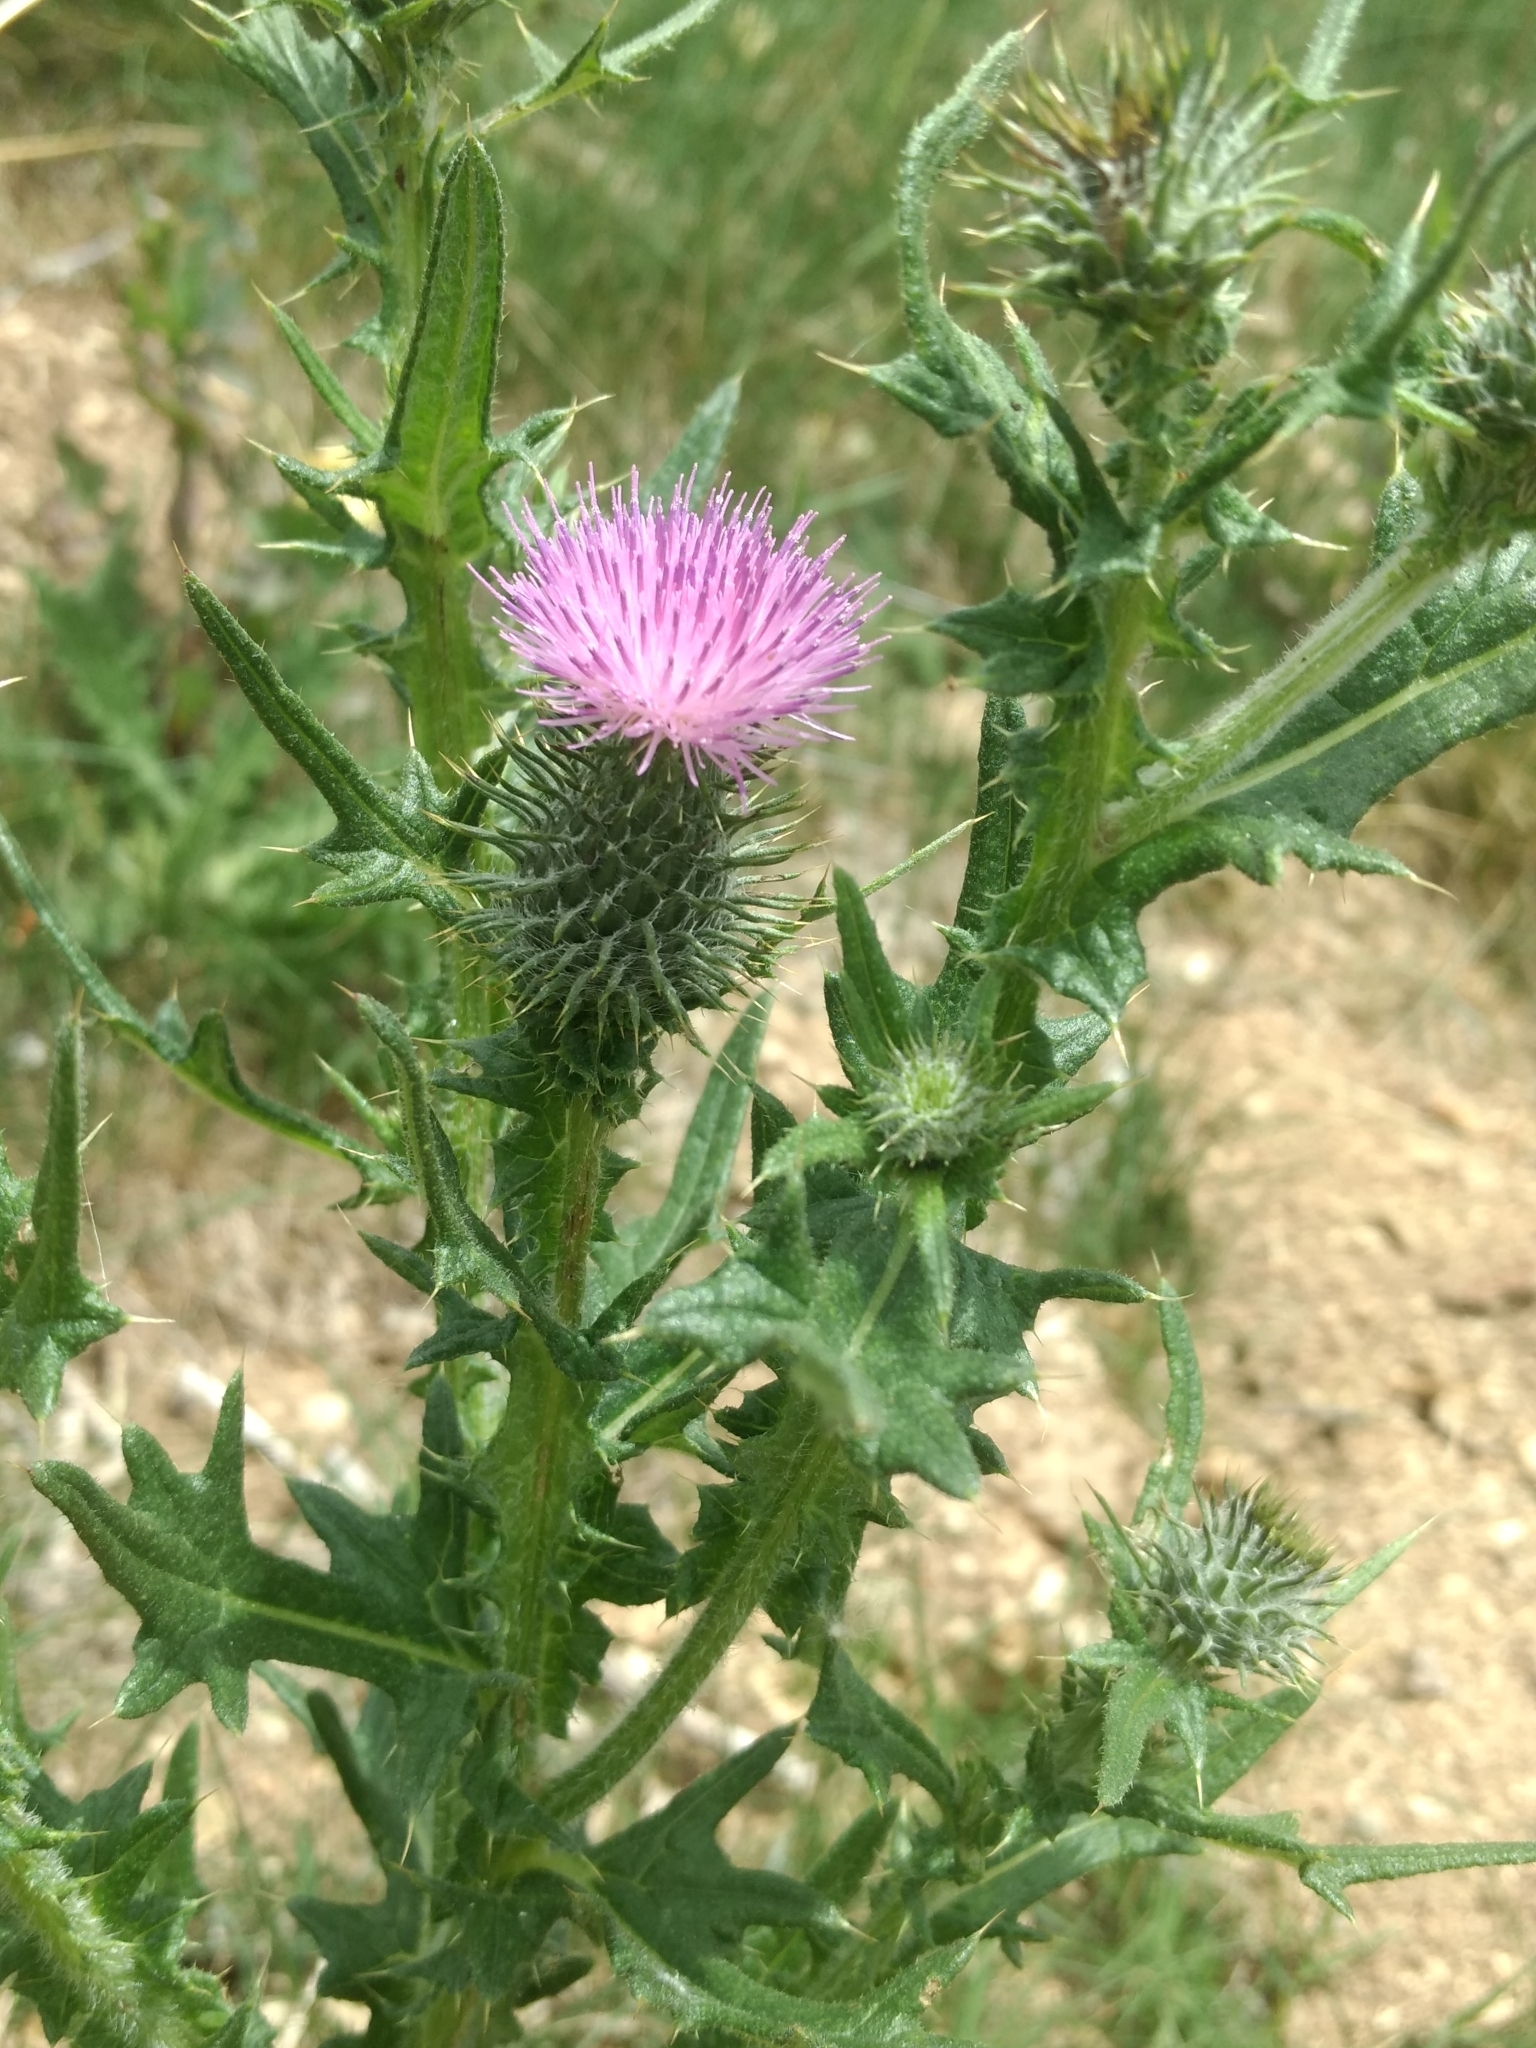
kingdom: Plantae
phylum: Tracheophyta
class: Magnoliopsida
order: Asterales
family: Asteraceae
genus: Cirsium
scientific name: Cirsium vulgare
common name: Bull thistle
